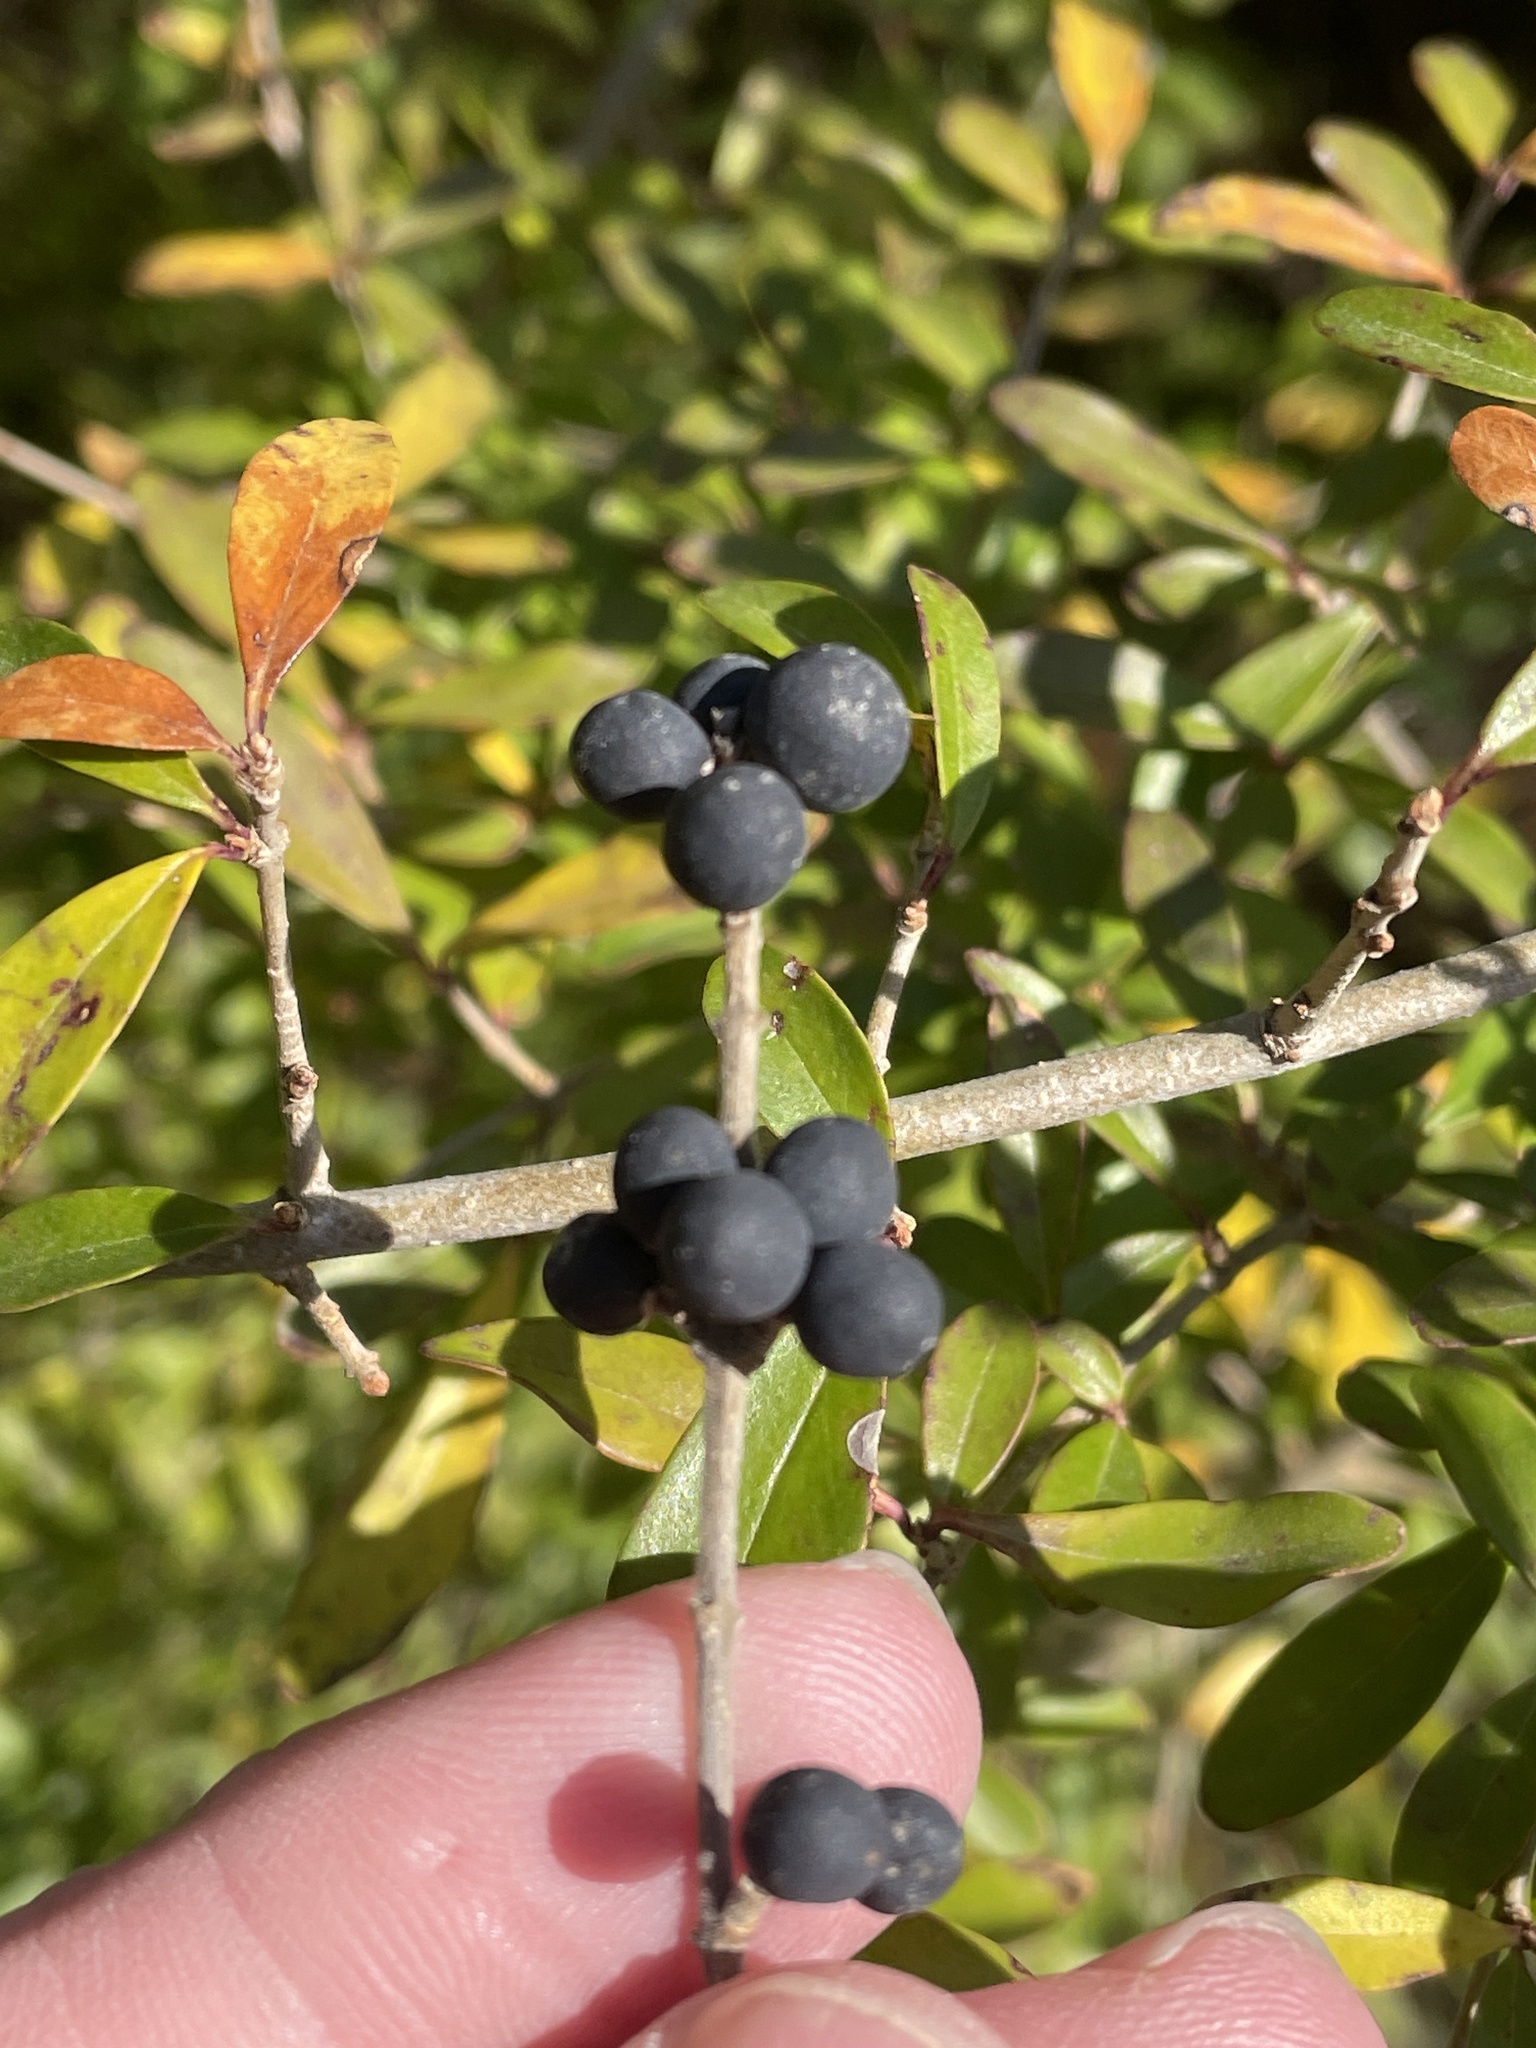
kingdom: Plantae
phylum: Tracheophyta
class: Magnoliopsida
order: Lamiales
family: Oleaceae
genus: Ligustrum
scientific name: Ligustrum quihoui
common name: Waxyleaf privet
